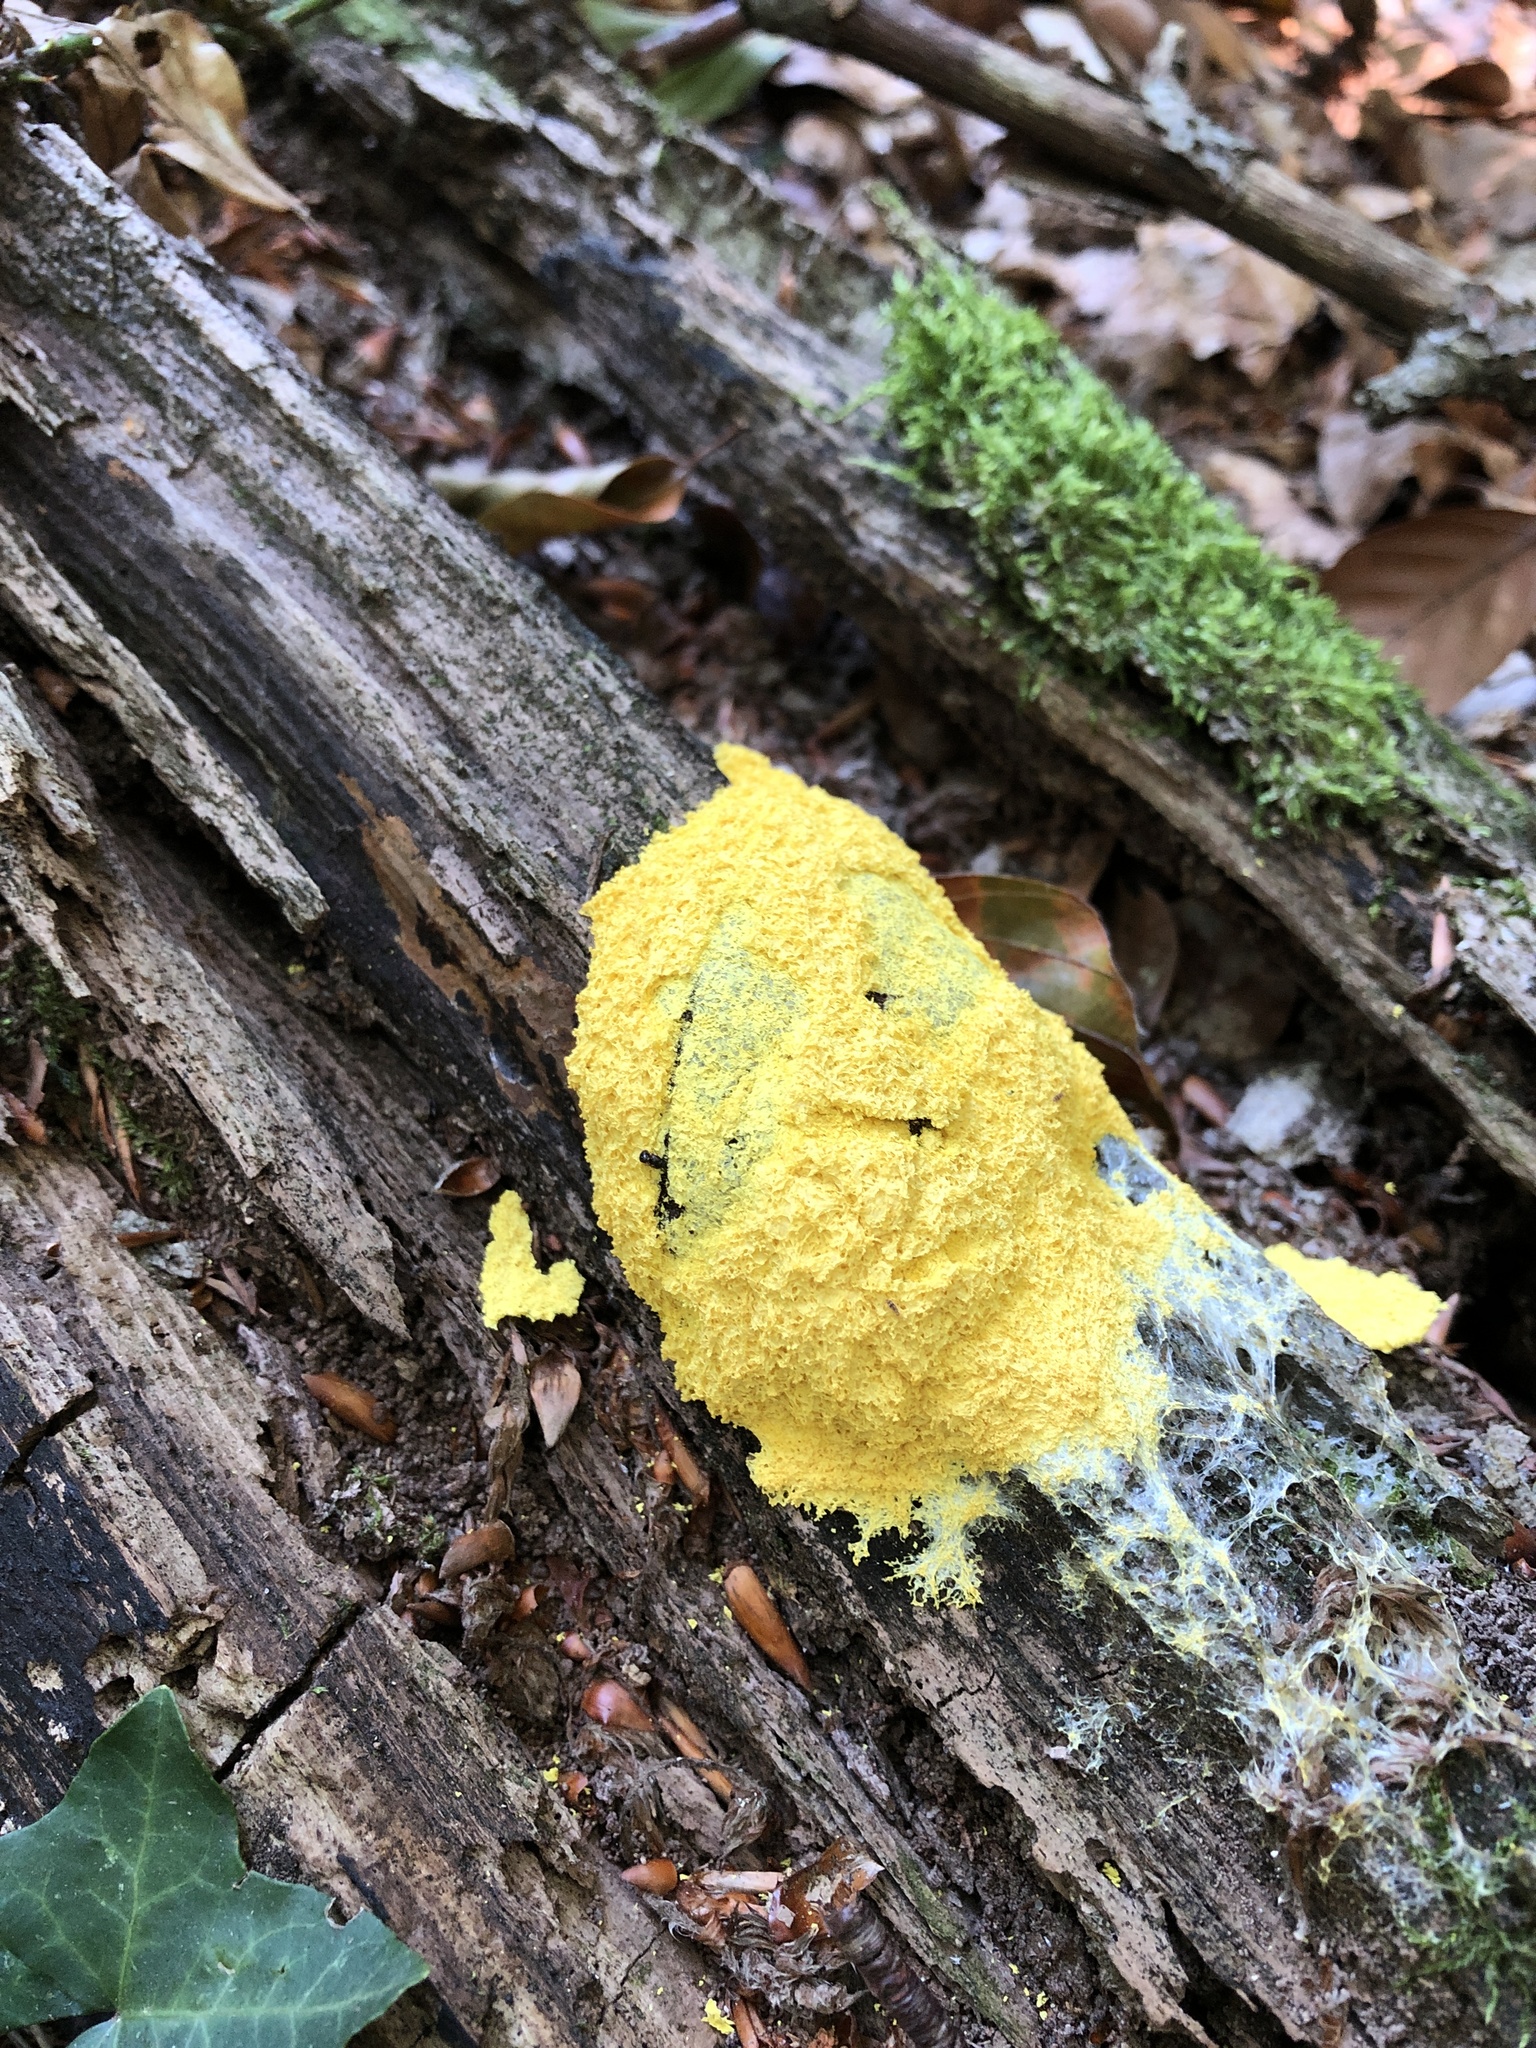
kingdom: Protozoa
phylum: Mycetozoa
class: Myxomycetes
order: Physarales
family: Physaraceae
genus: Fuligo
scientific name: Fuligo septica
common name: Dog vomit slime mold
